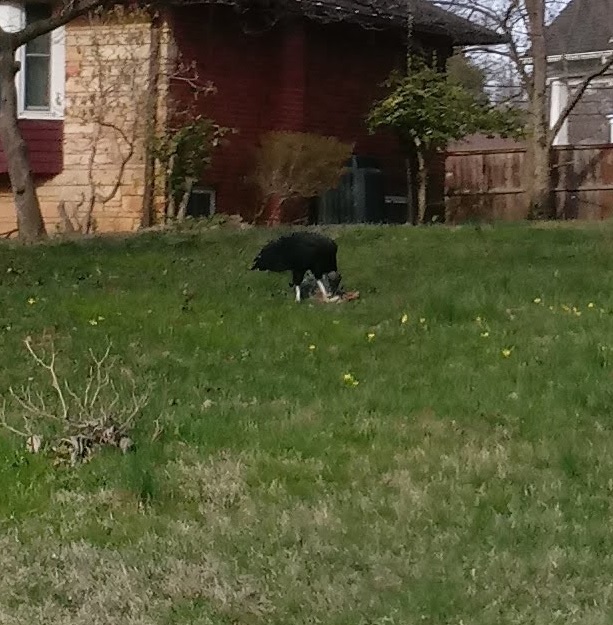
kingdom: Animalia
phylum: Chordata
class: Aves
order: Accipitriformes
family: Cathartidae
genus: Coragyps
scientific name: Coragyps atratus
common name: Black vulture
